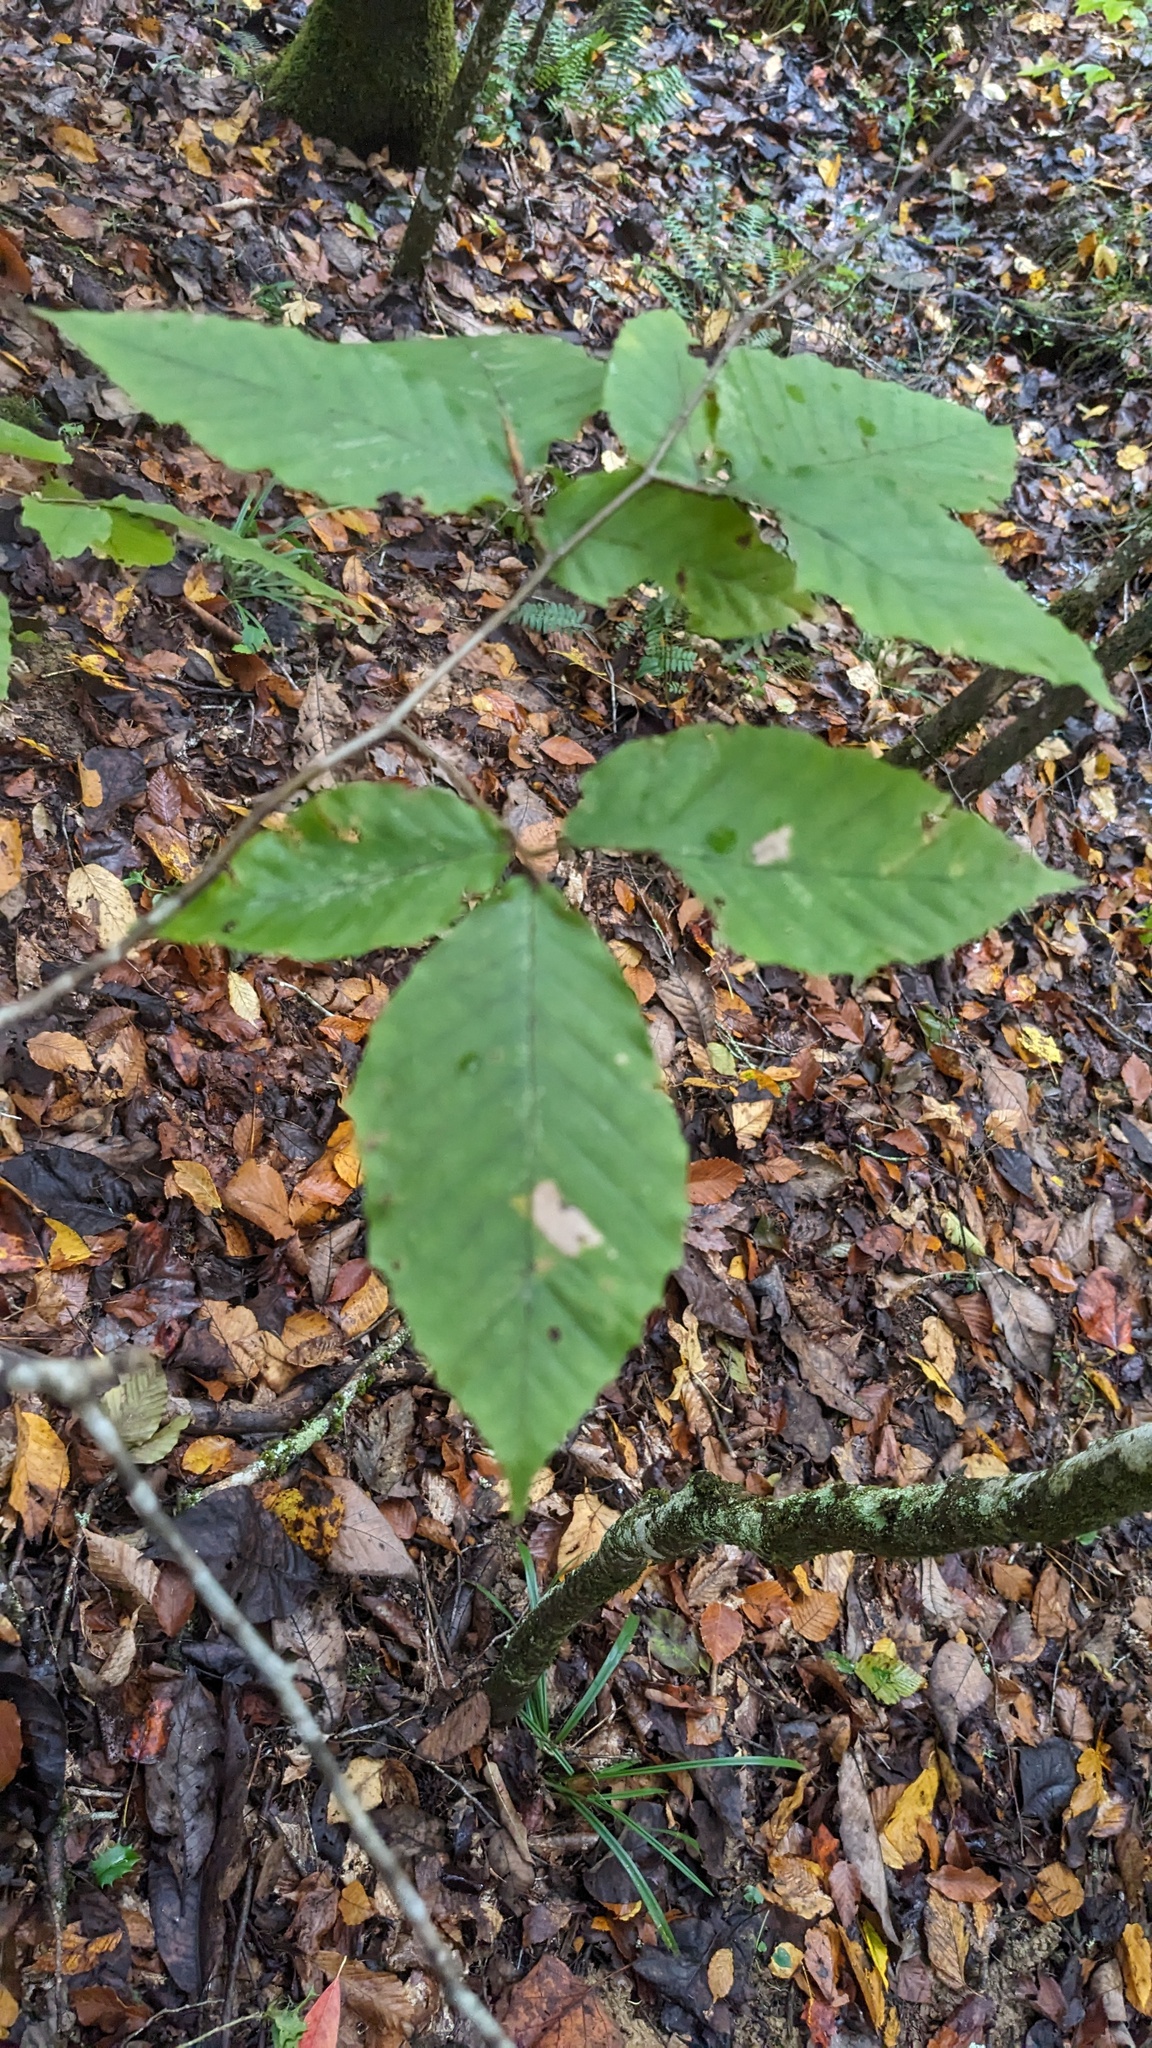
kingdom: Plantae
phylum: Tracheophyta
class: Magnoliopsida
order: Fagales
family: Fagaceae
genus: Fagus
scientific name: Fagus grandifolia
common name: American beech
